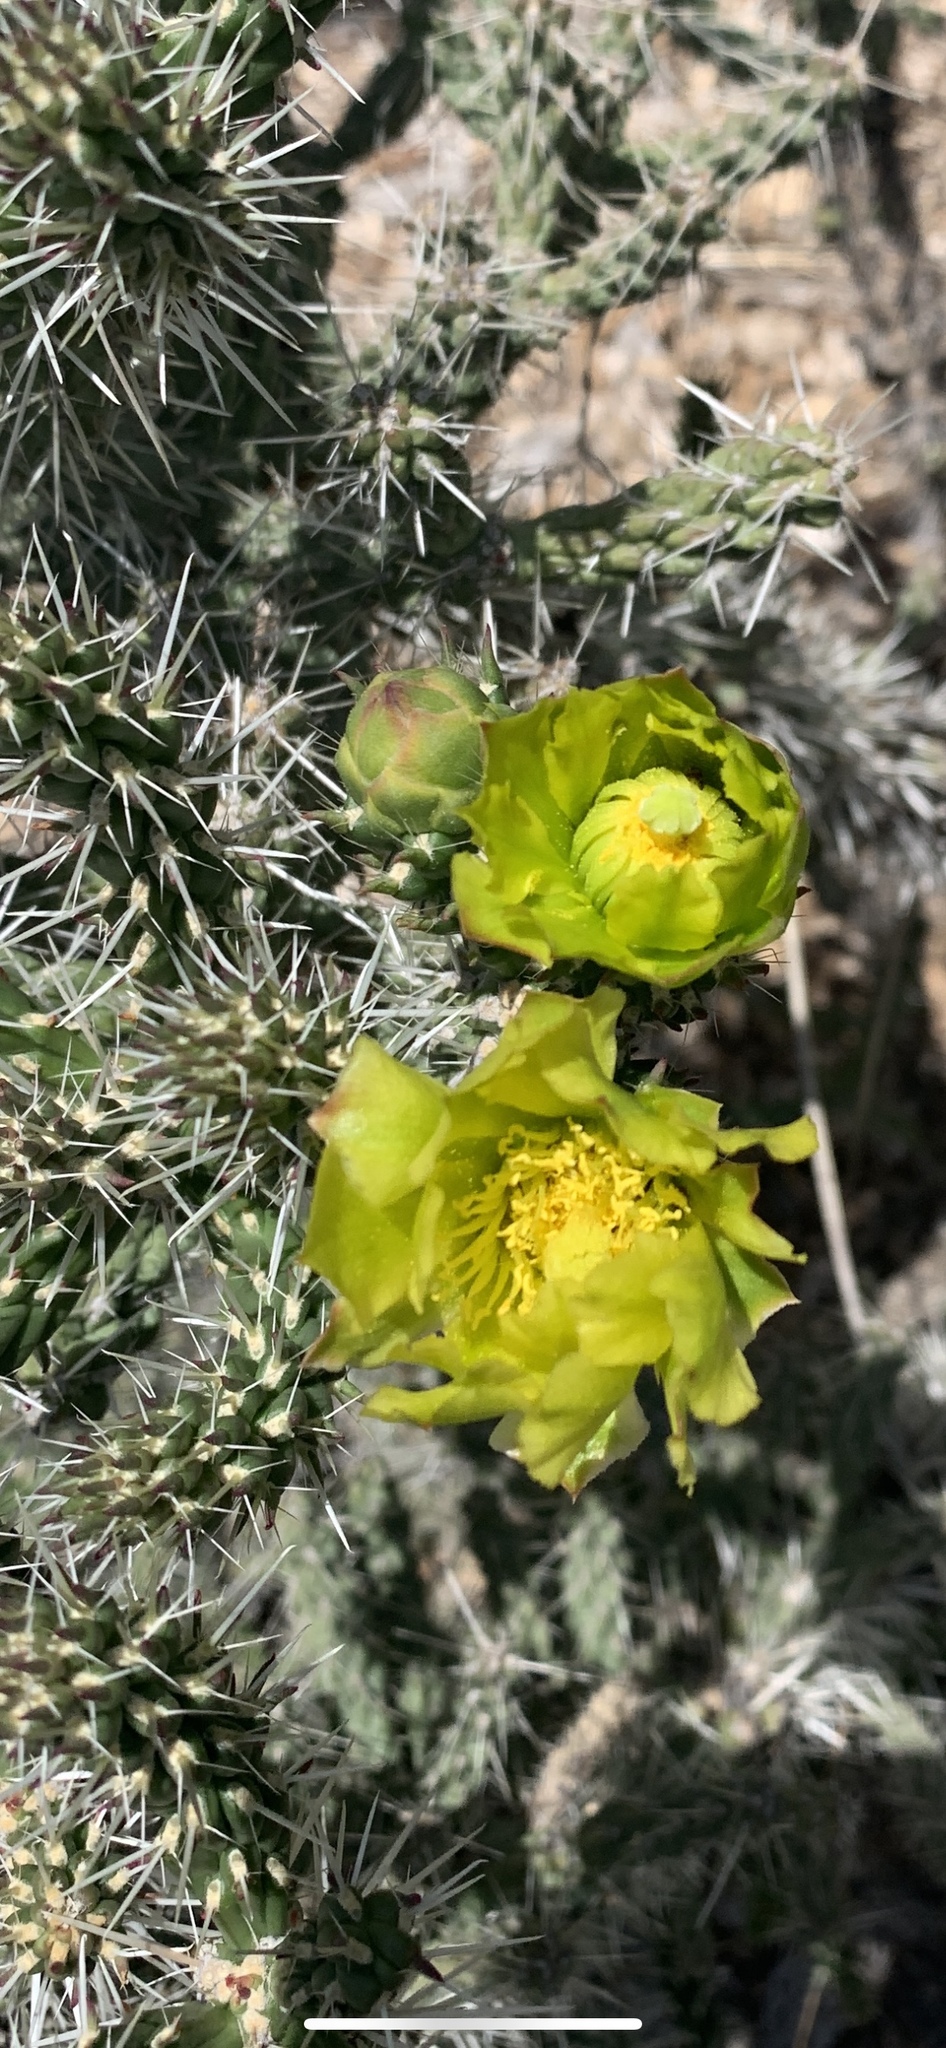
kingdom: Plantae
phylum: Tracheophyta
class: Magnoliopsida
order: Caryophyllales
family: Cactaceae
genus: Cylindropuntia
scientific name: Cylindropuntia whipplei
